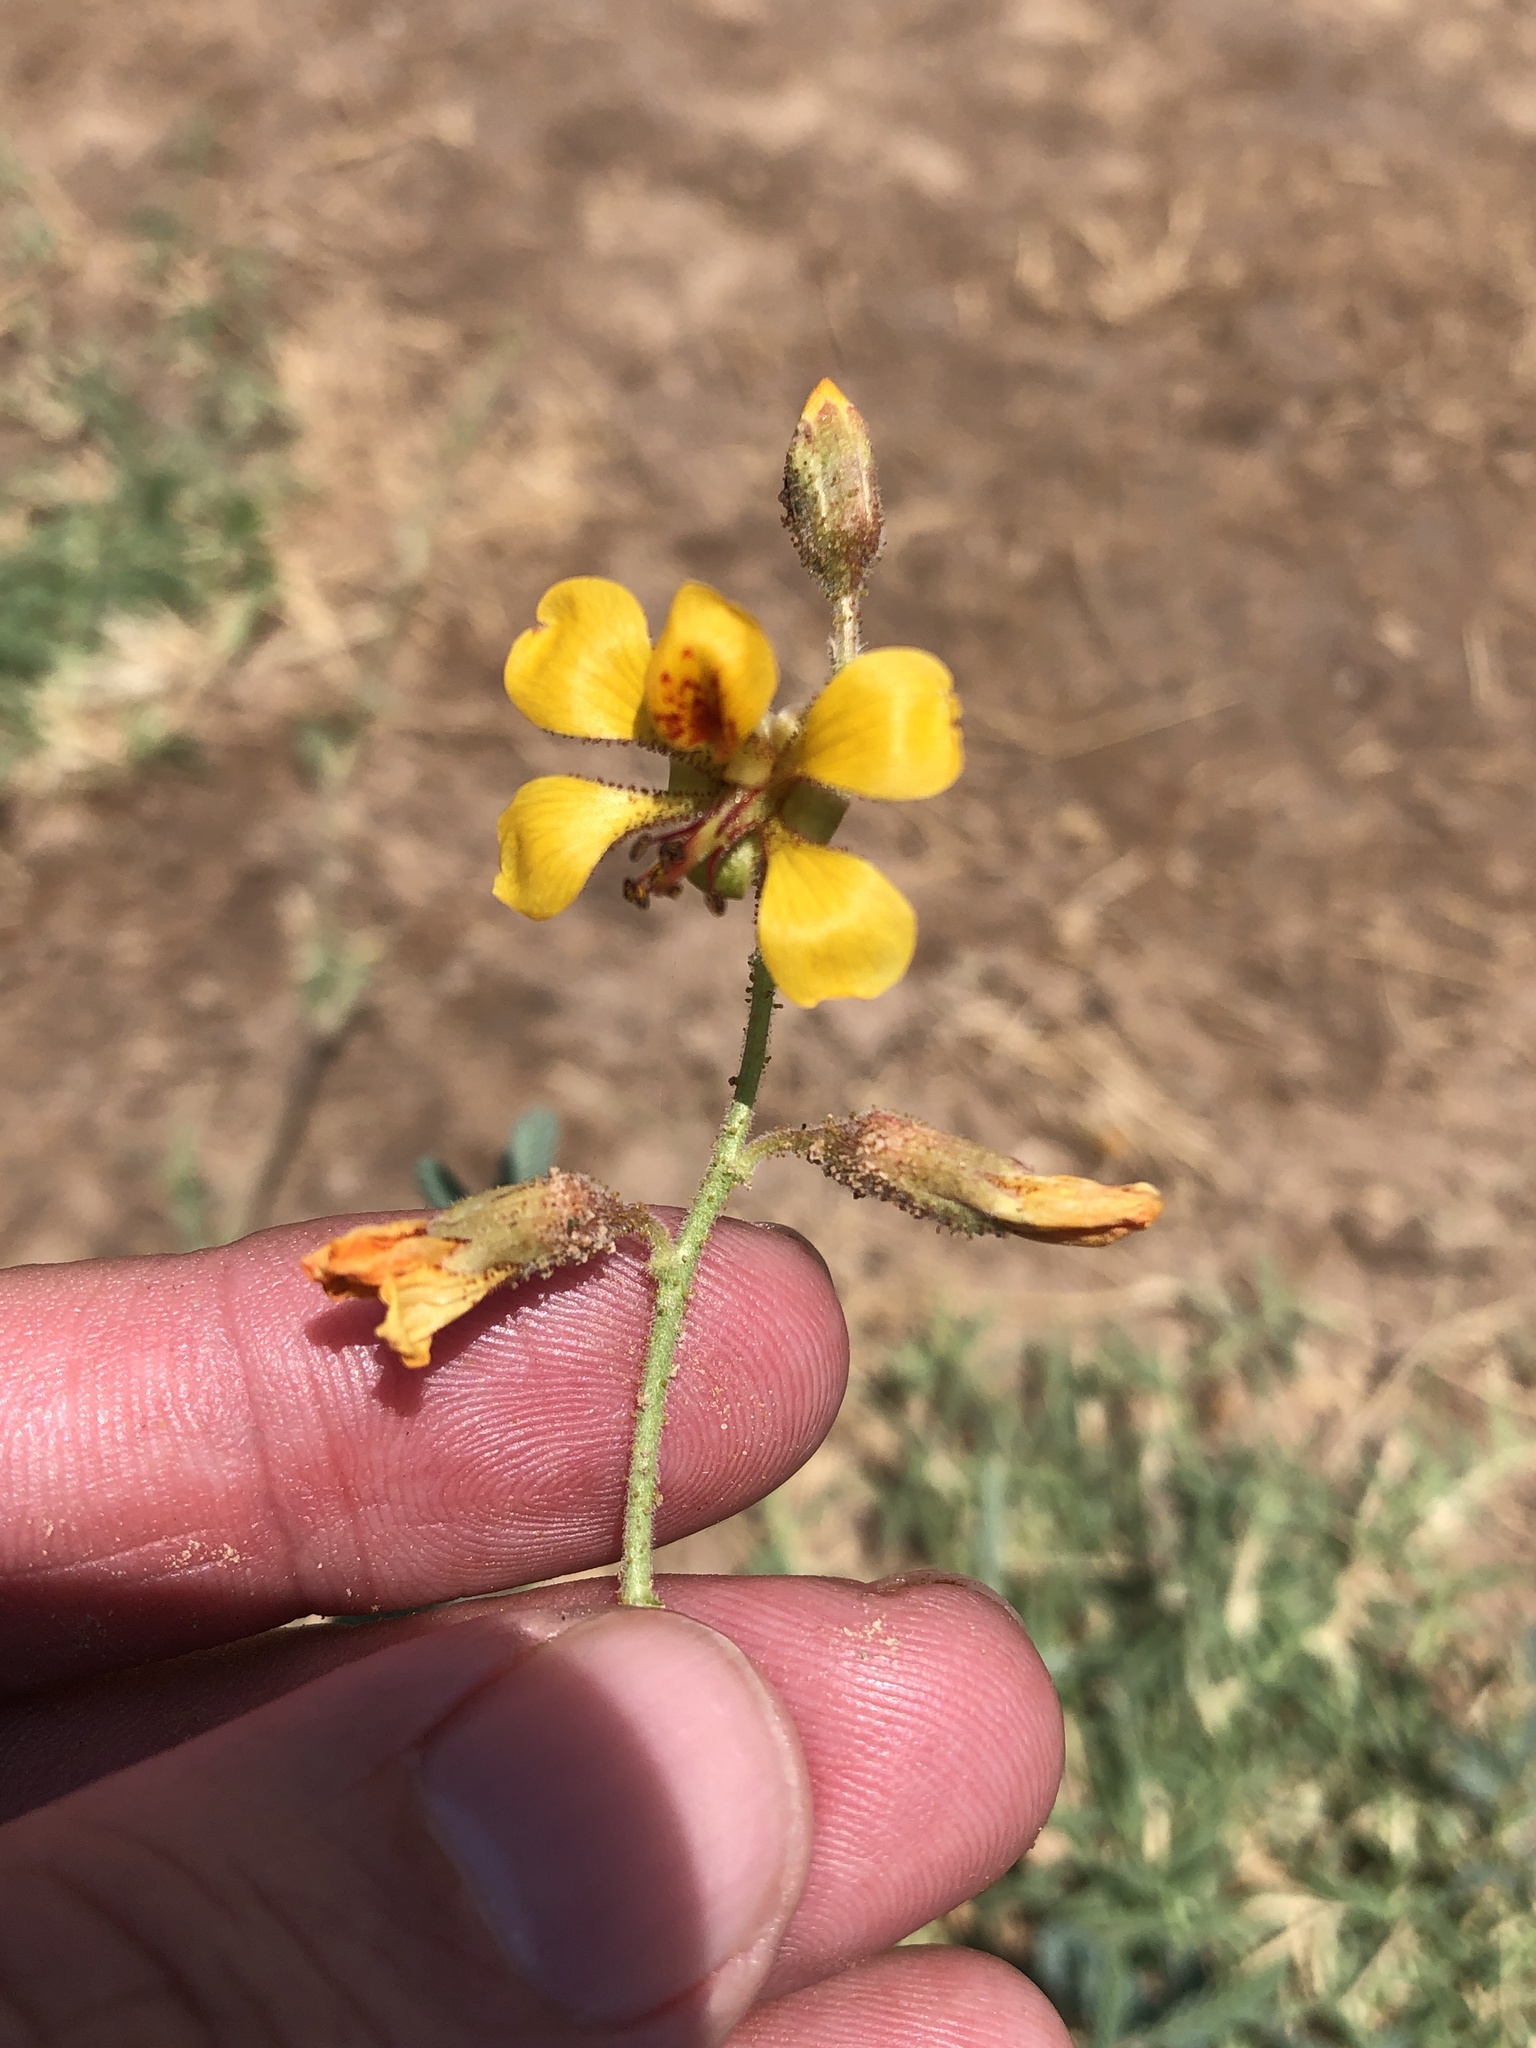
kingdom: Plantae
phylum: Tracheophyta
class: Magnoliopsida
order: Fabales
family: Fabaceae
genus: Hoffmannseggia
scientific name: Hoffmannseggia glauca
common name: Pignut
